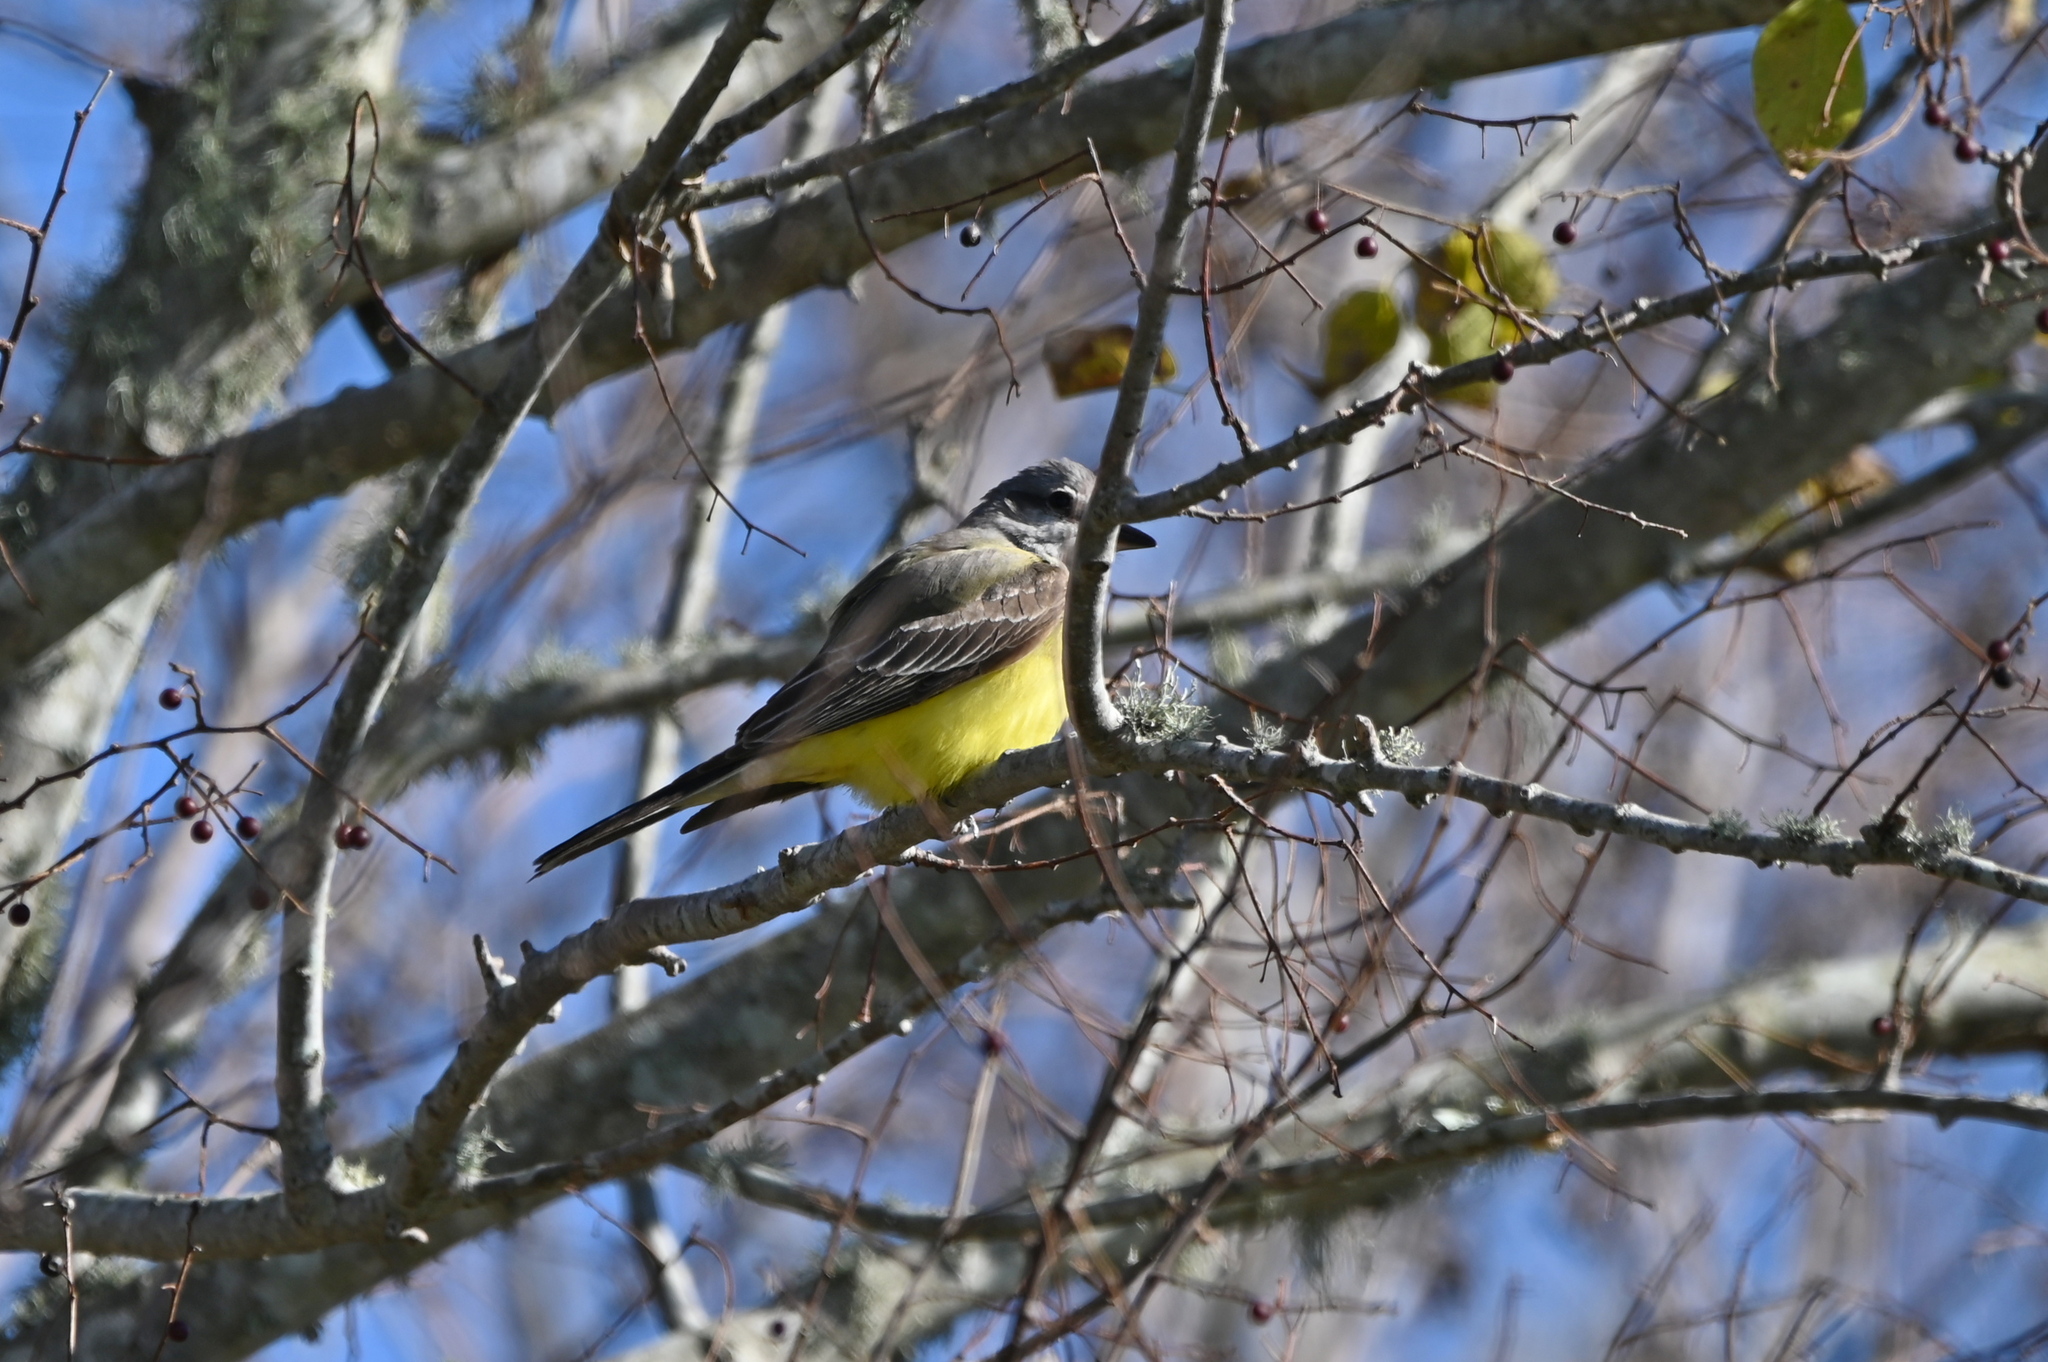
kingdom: Animalia
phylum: Chordata
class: Aves
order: Passeriformes
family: Tyrannidae
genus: Tyrannus
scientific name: Tyrannus verticalis
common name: Western kingbird
